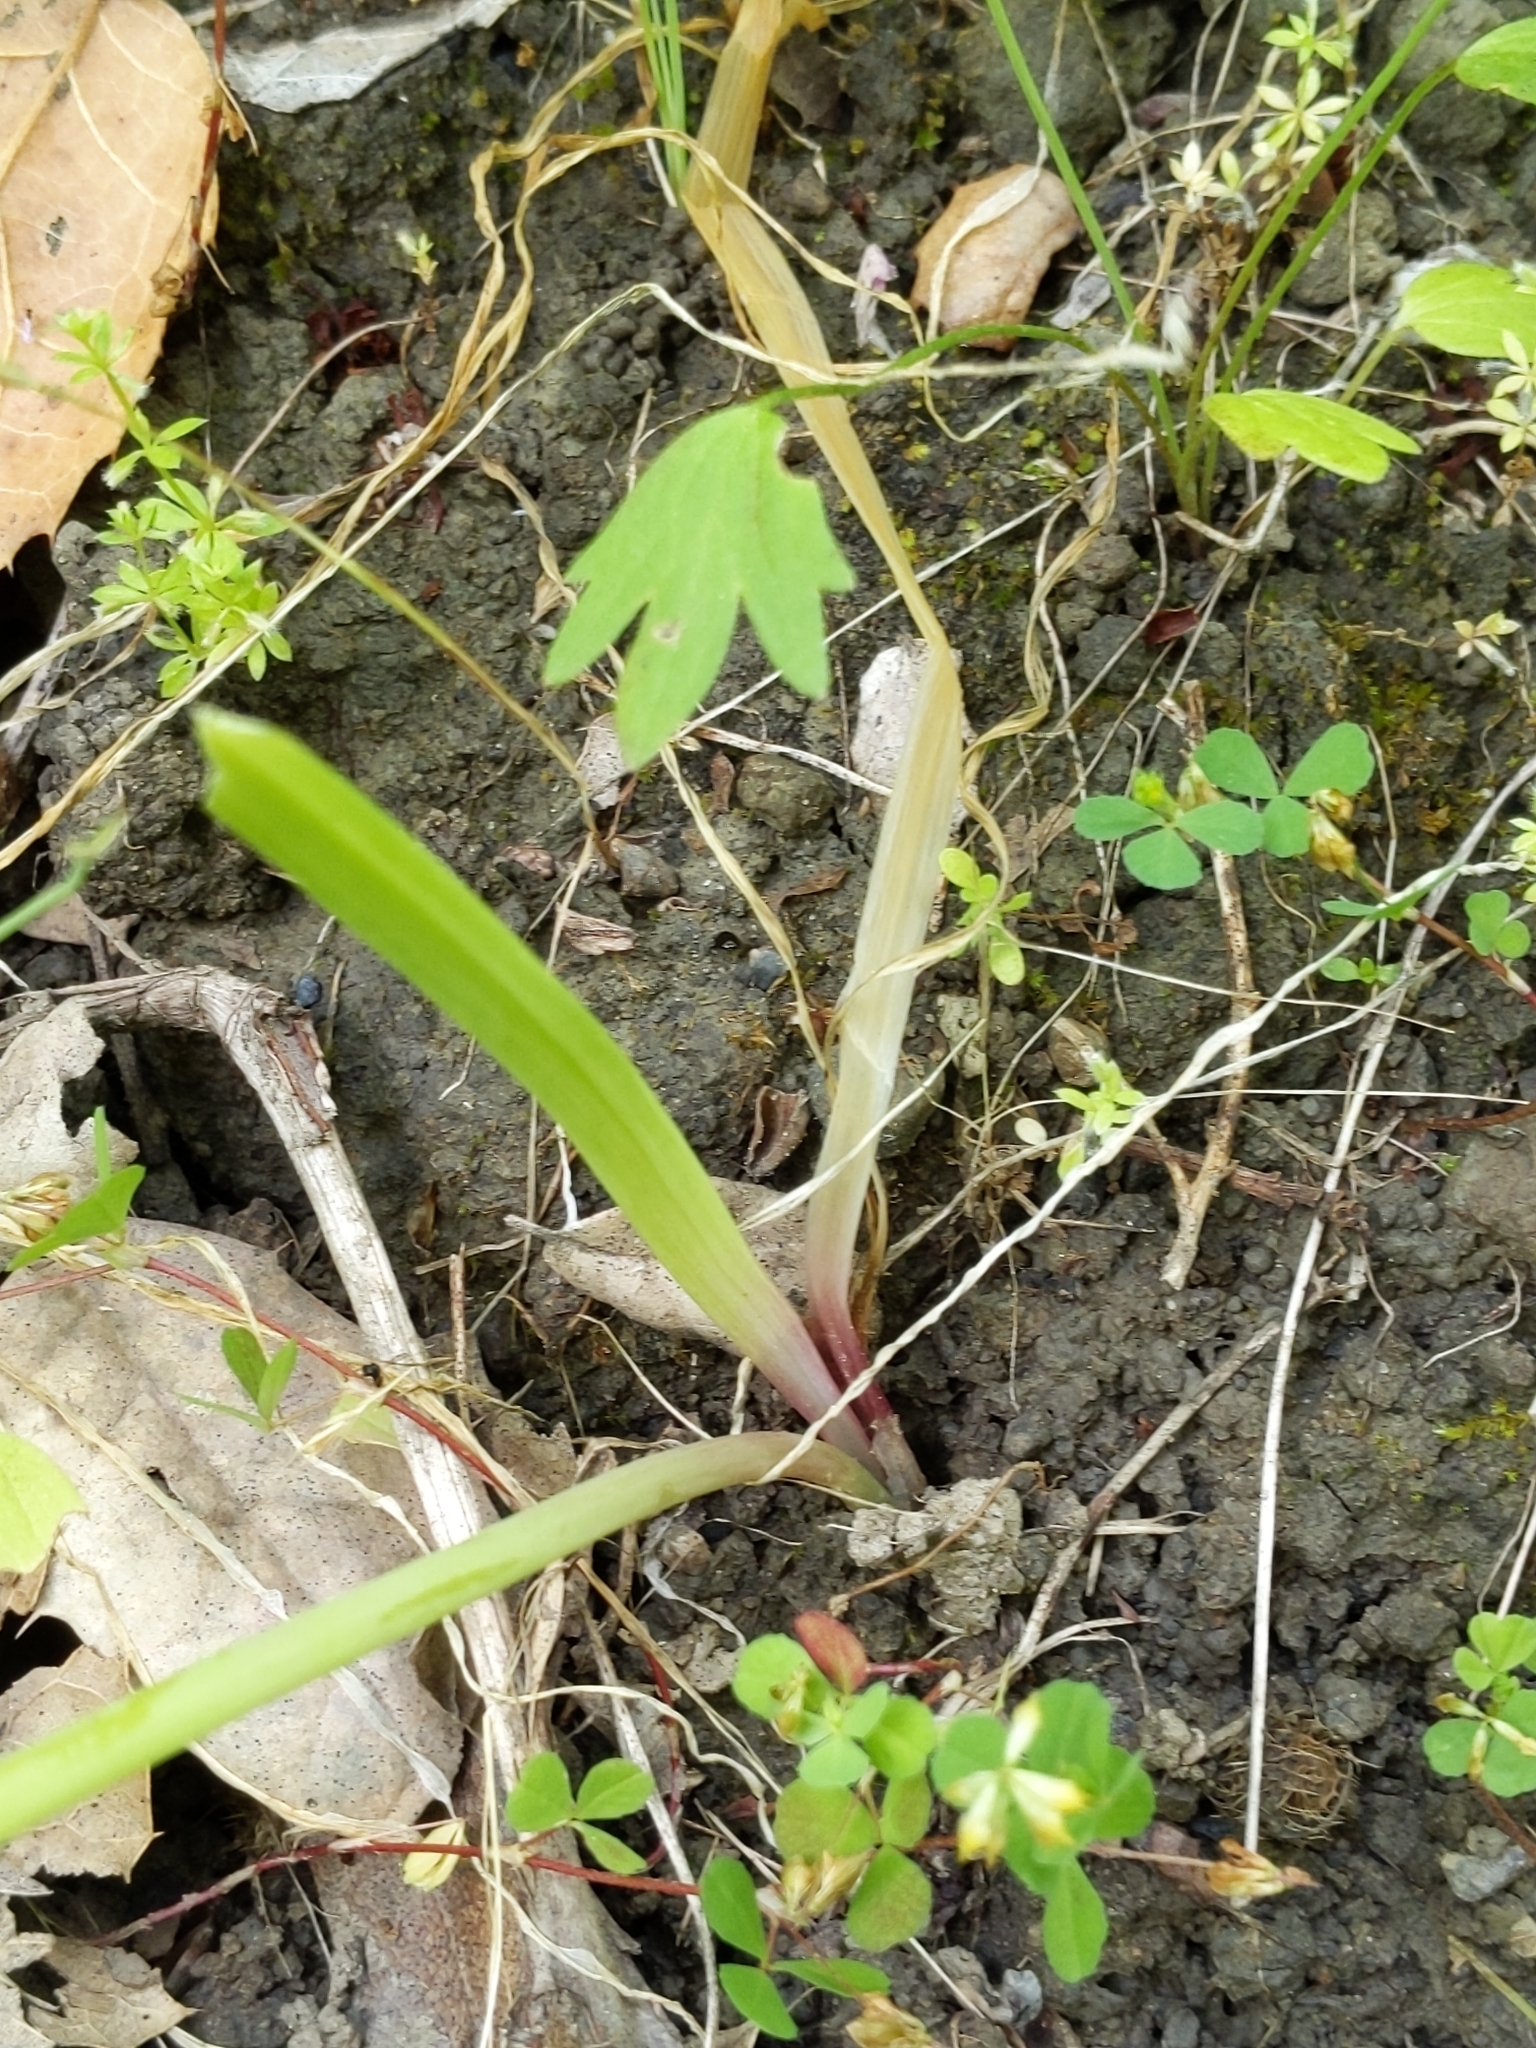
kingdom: Plantae
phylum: Tracheophyta
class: Liliopsida
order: Asparagales
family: Amaryllidaceae
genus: Allium
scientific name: Allium unifolium
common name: American garlic
